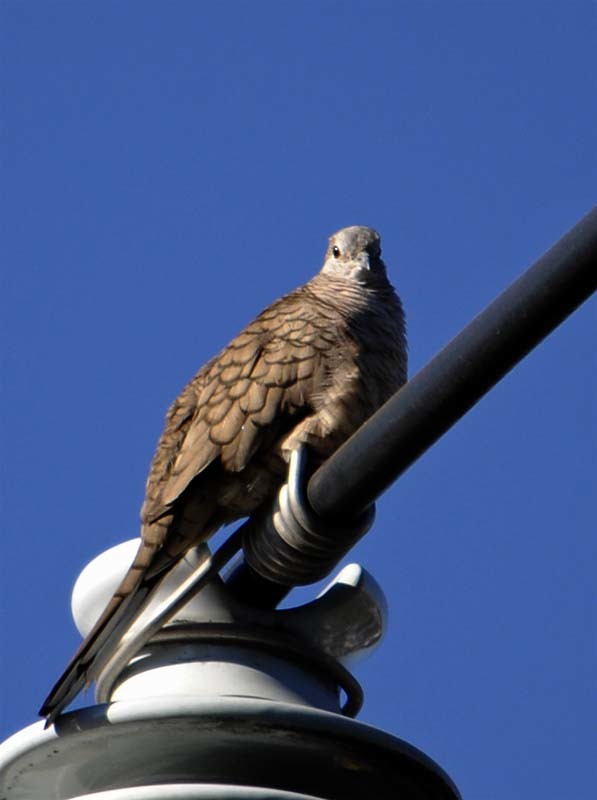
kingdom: Animalia
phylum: Chordata
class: Aves
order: Columbiformes
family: Columbidae
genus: Columbina
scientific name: Columbina inca
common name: Inca dove
